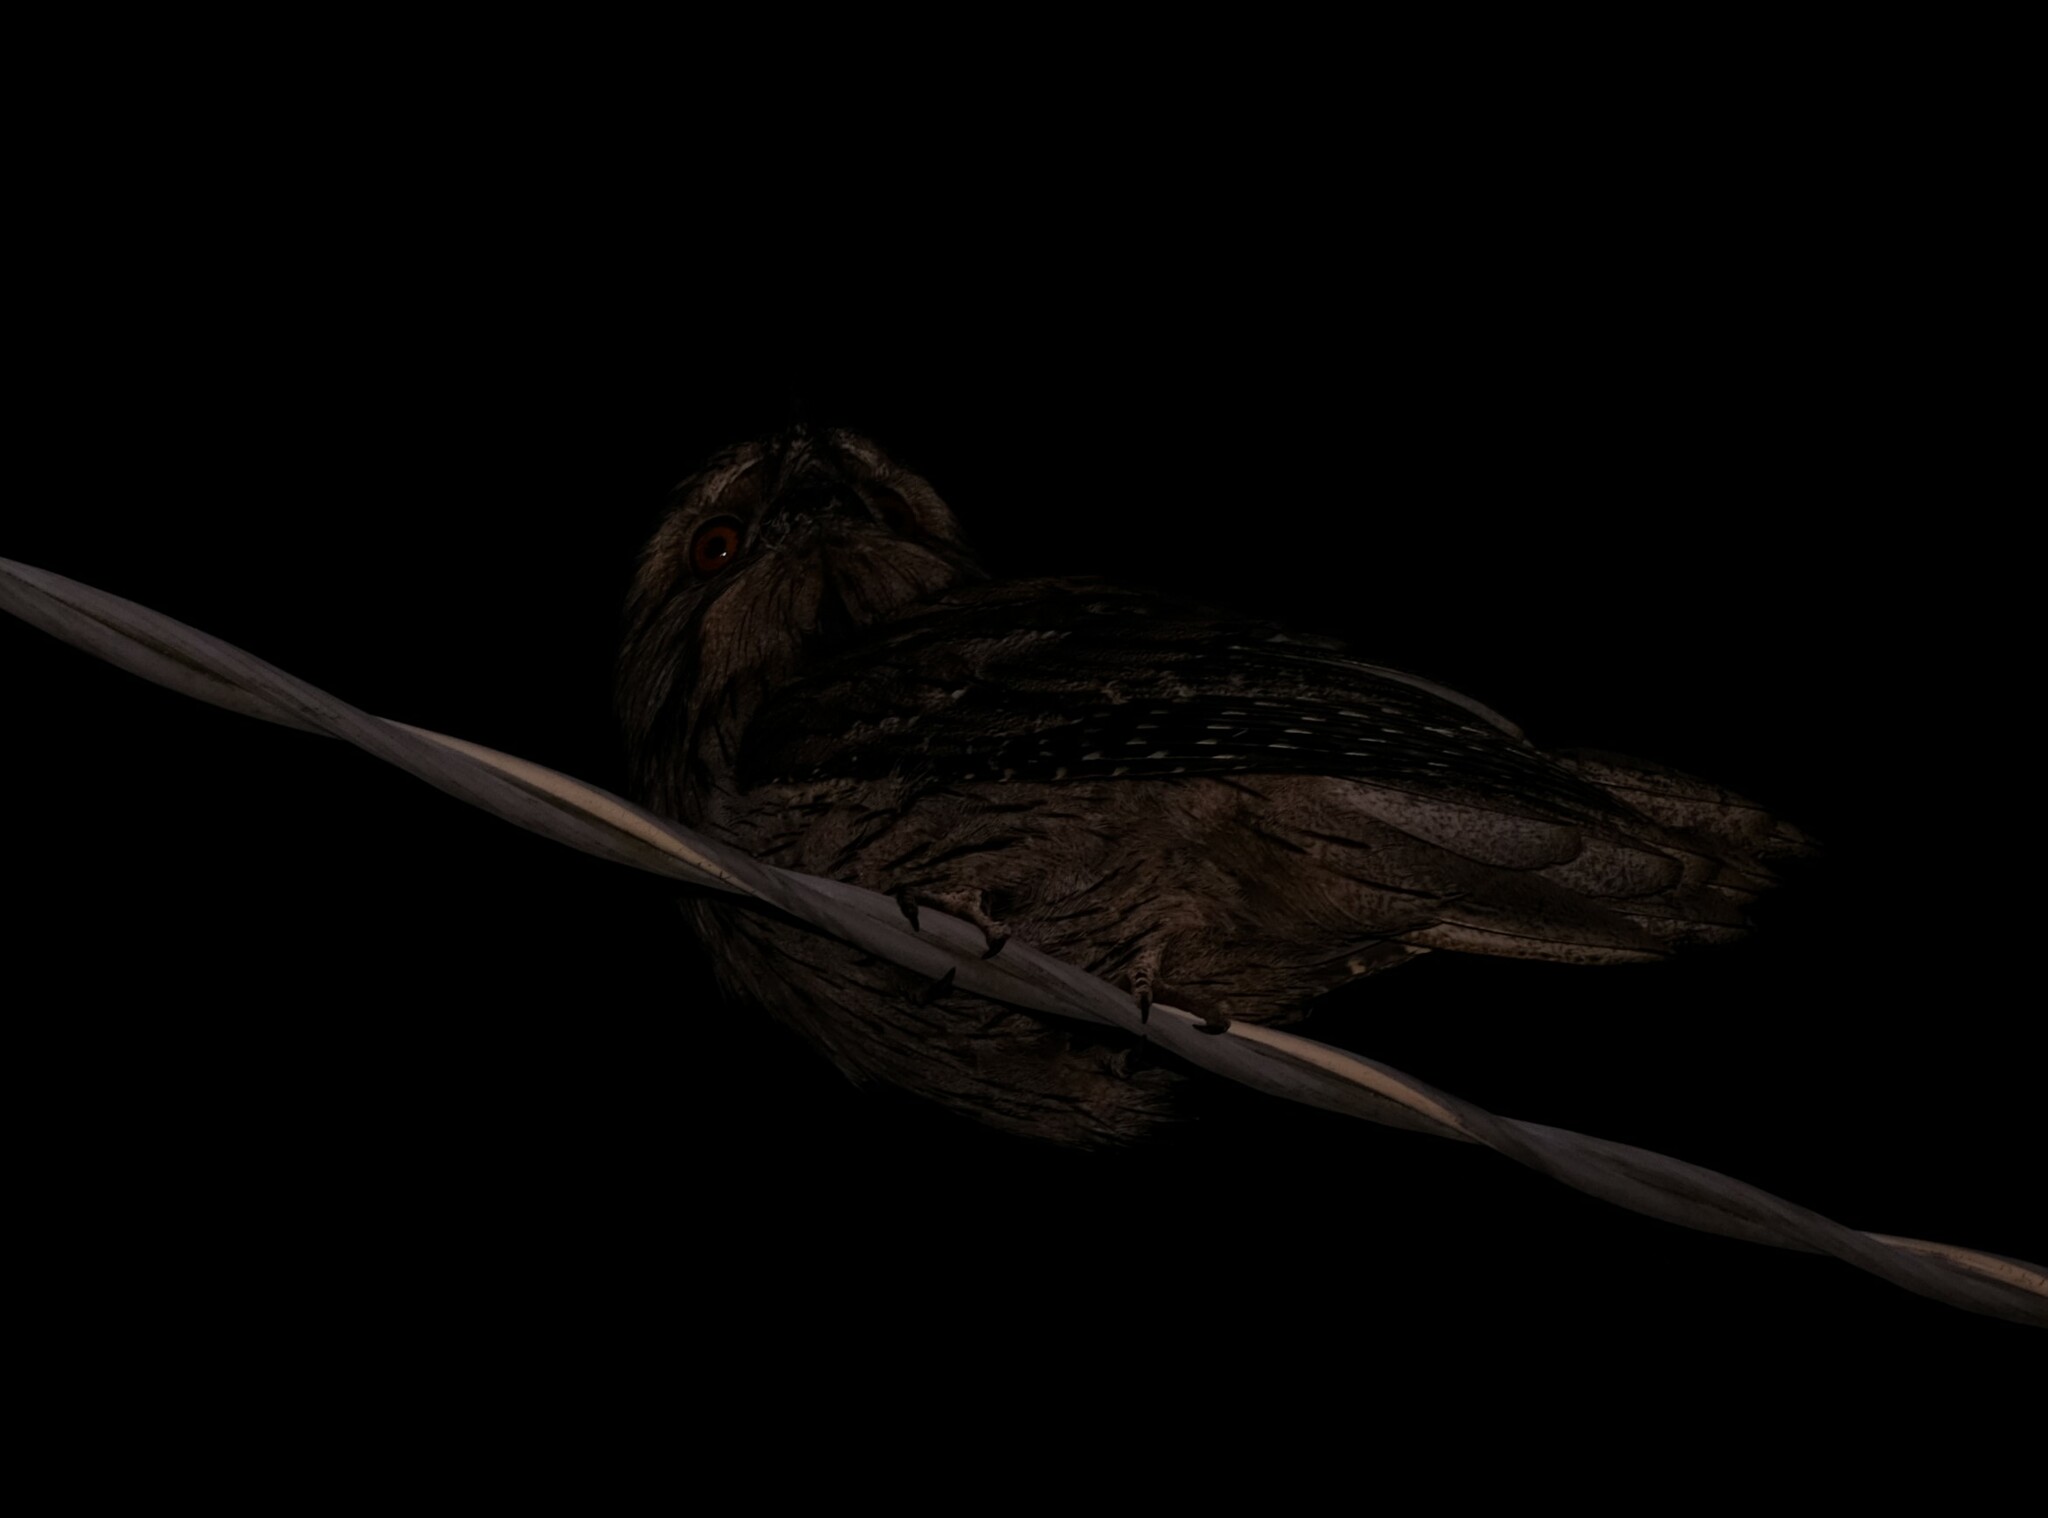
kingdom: Animalia
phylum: Chordata
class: Aves
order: Caprimulgiformes
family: Podargidae
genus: Podargus
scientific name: Podargus strigoides
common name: Tawny frogmouth
